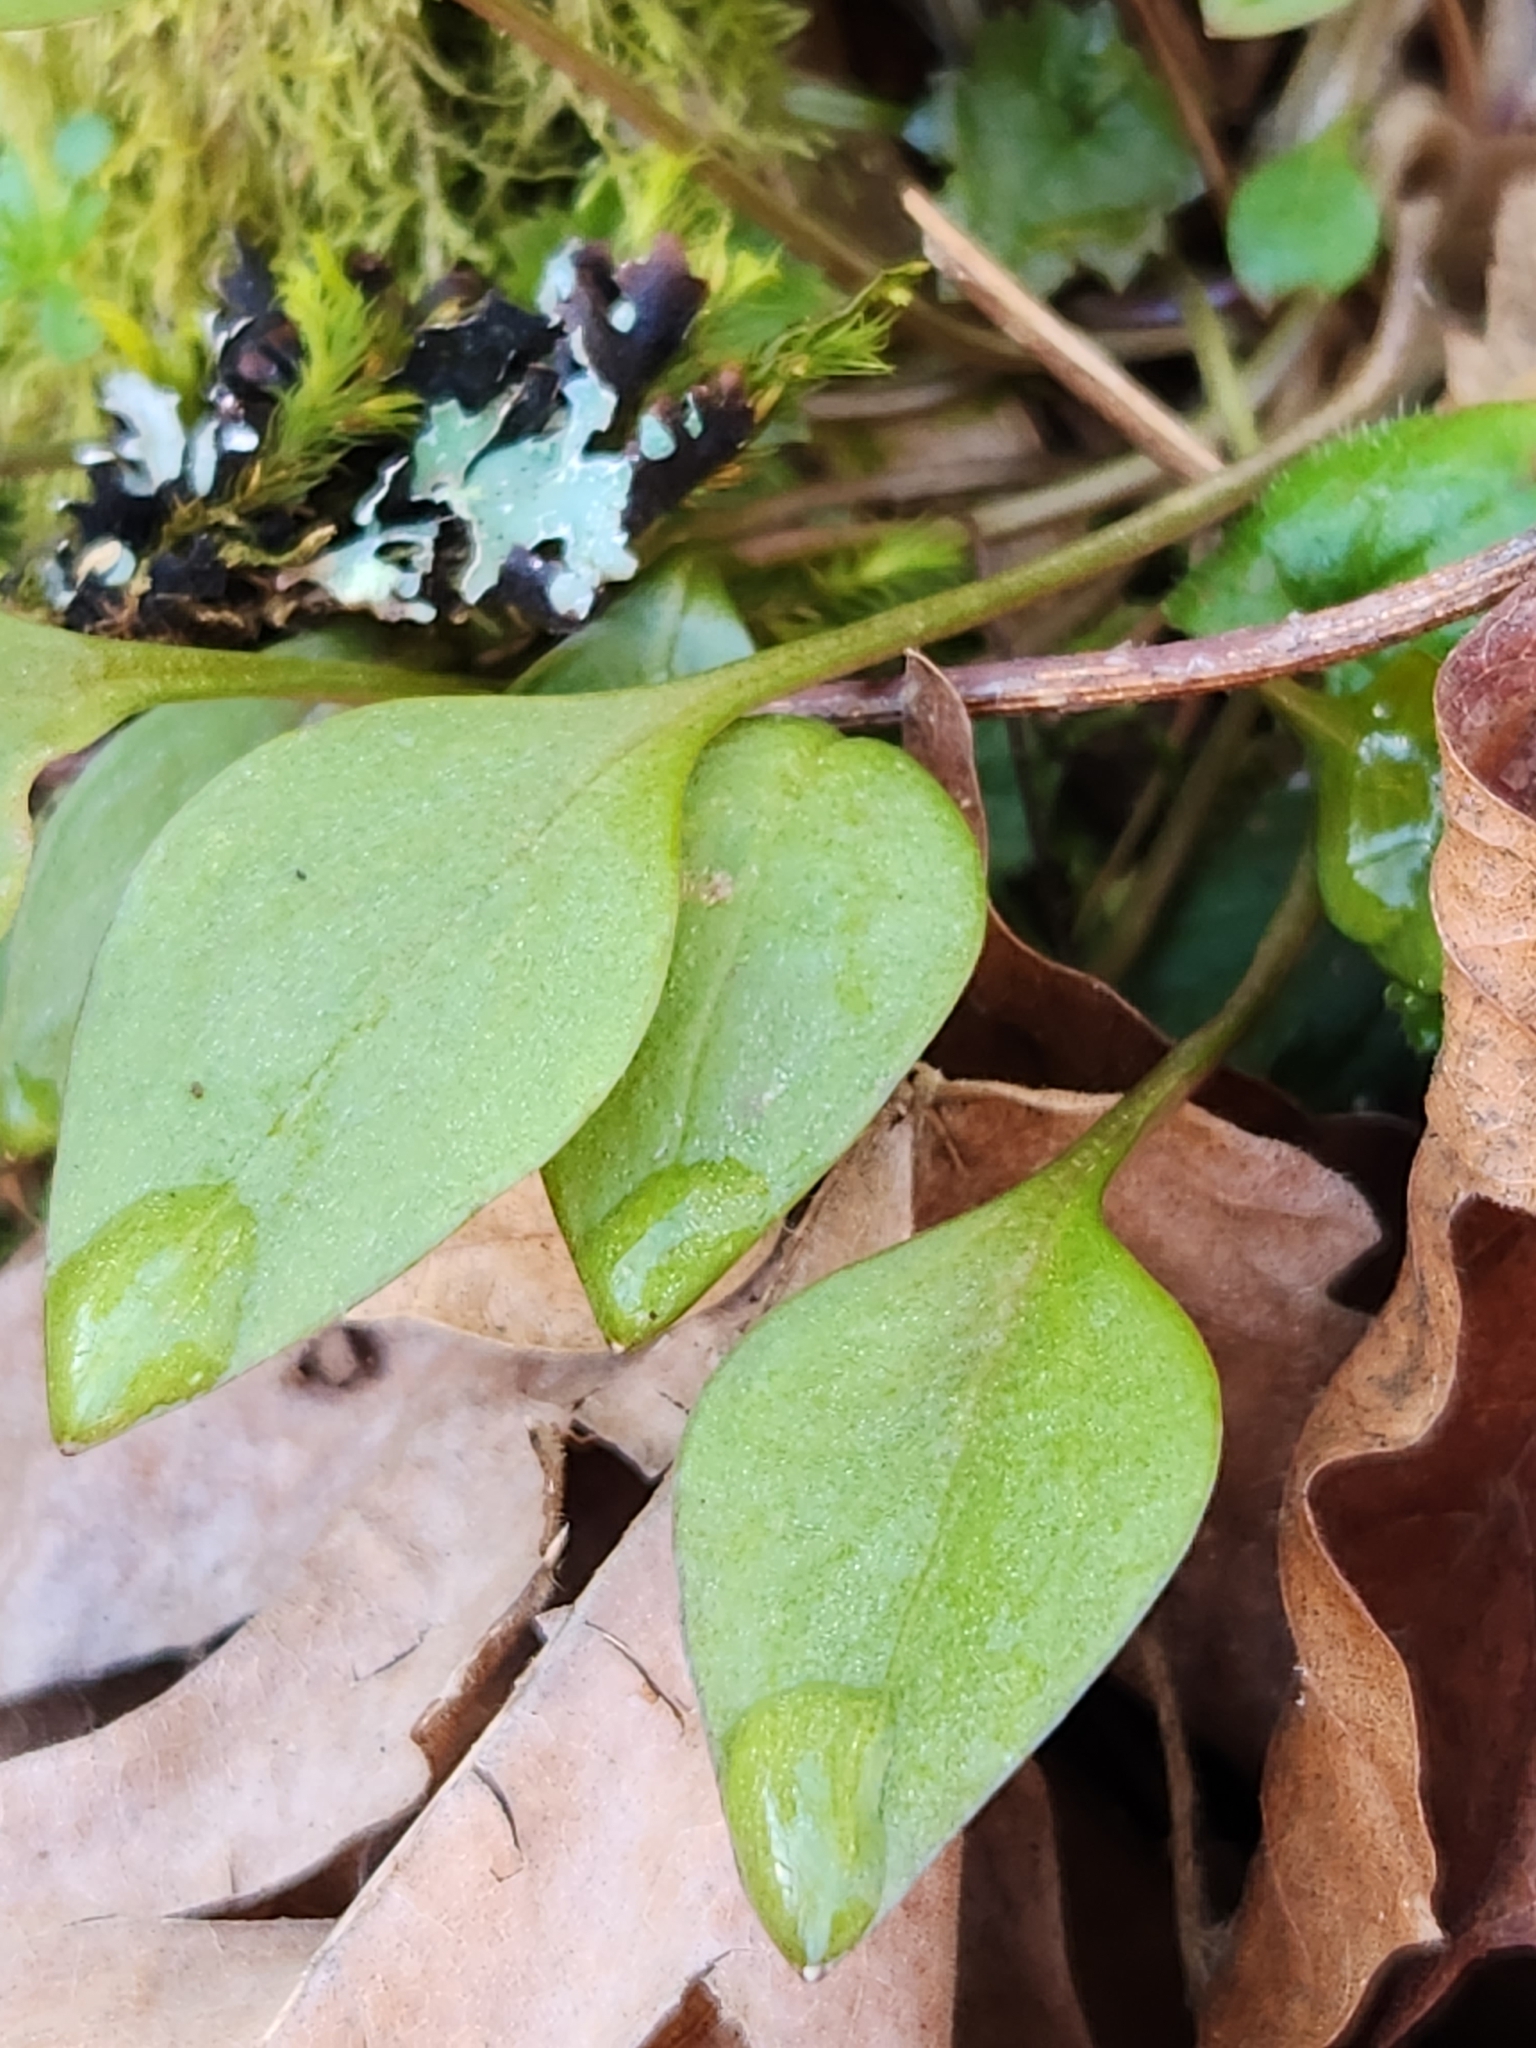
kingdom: Plantae
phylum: Tracheophyta
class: Magnoliopsida
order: Caryophyllales
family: Montiaceae
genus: Claytonia
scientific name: Claytonia sibirica
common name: Pink purslane
